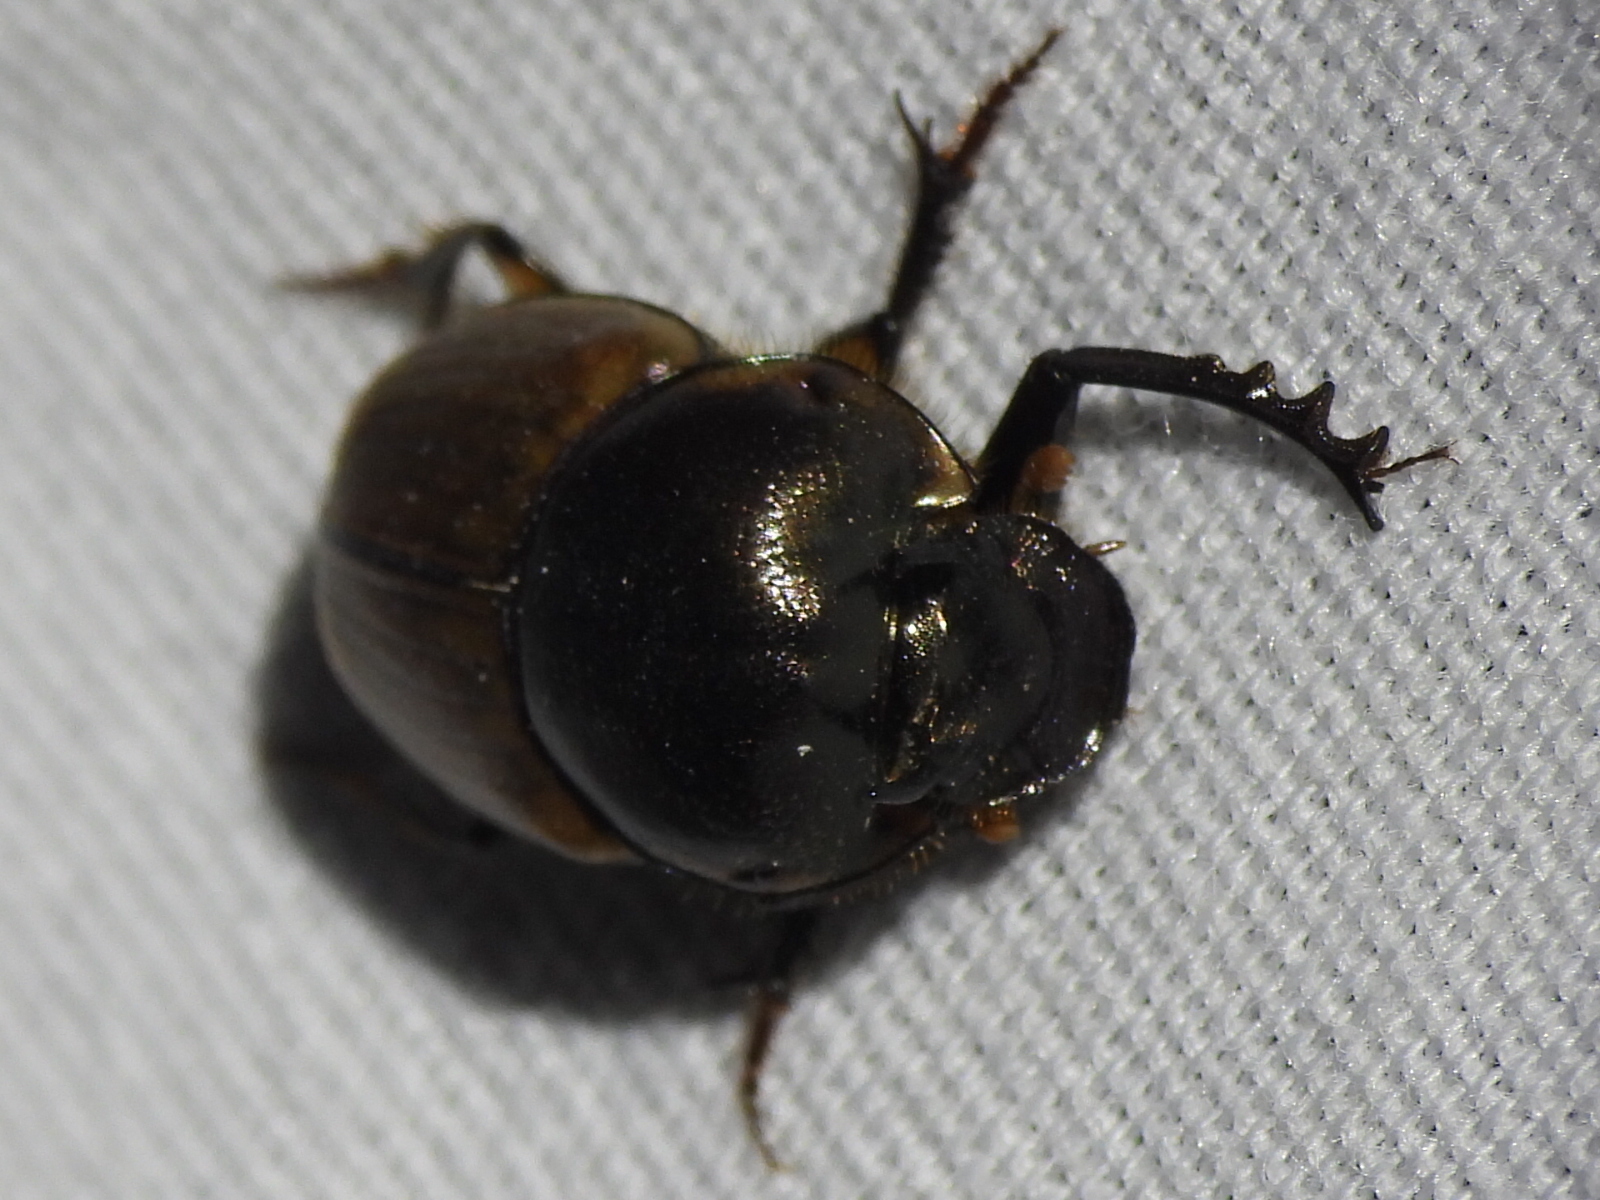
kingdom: Animalia
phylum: Arthropoda
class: Insecta
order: Coleoptera
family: Scarabaeidae
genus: Digitonthophagus
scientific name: Digitonthophagus gazella
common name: Brown dung beetle
